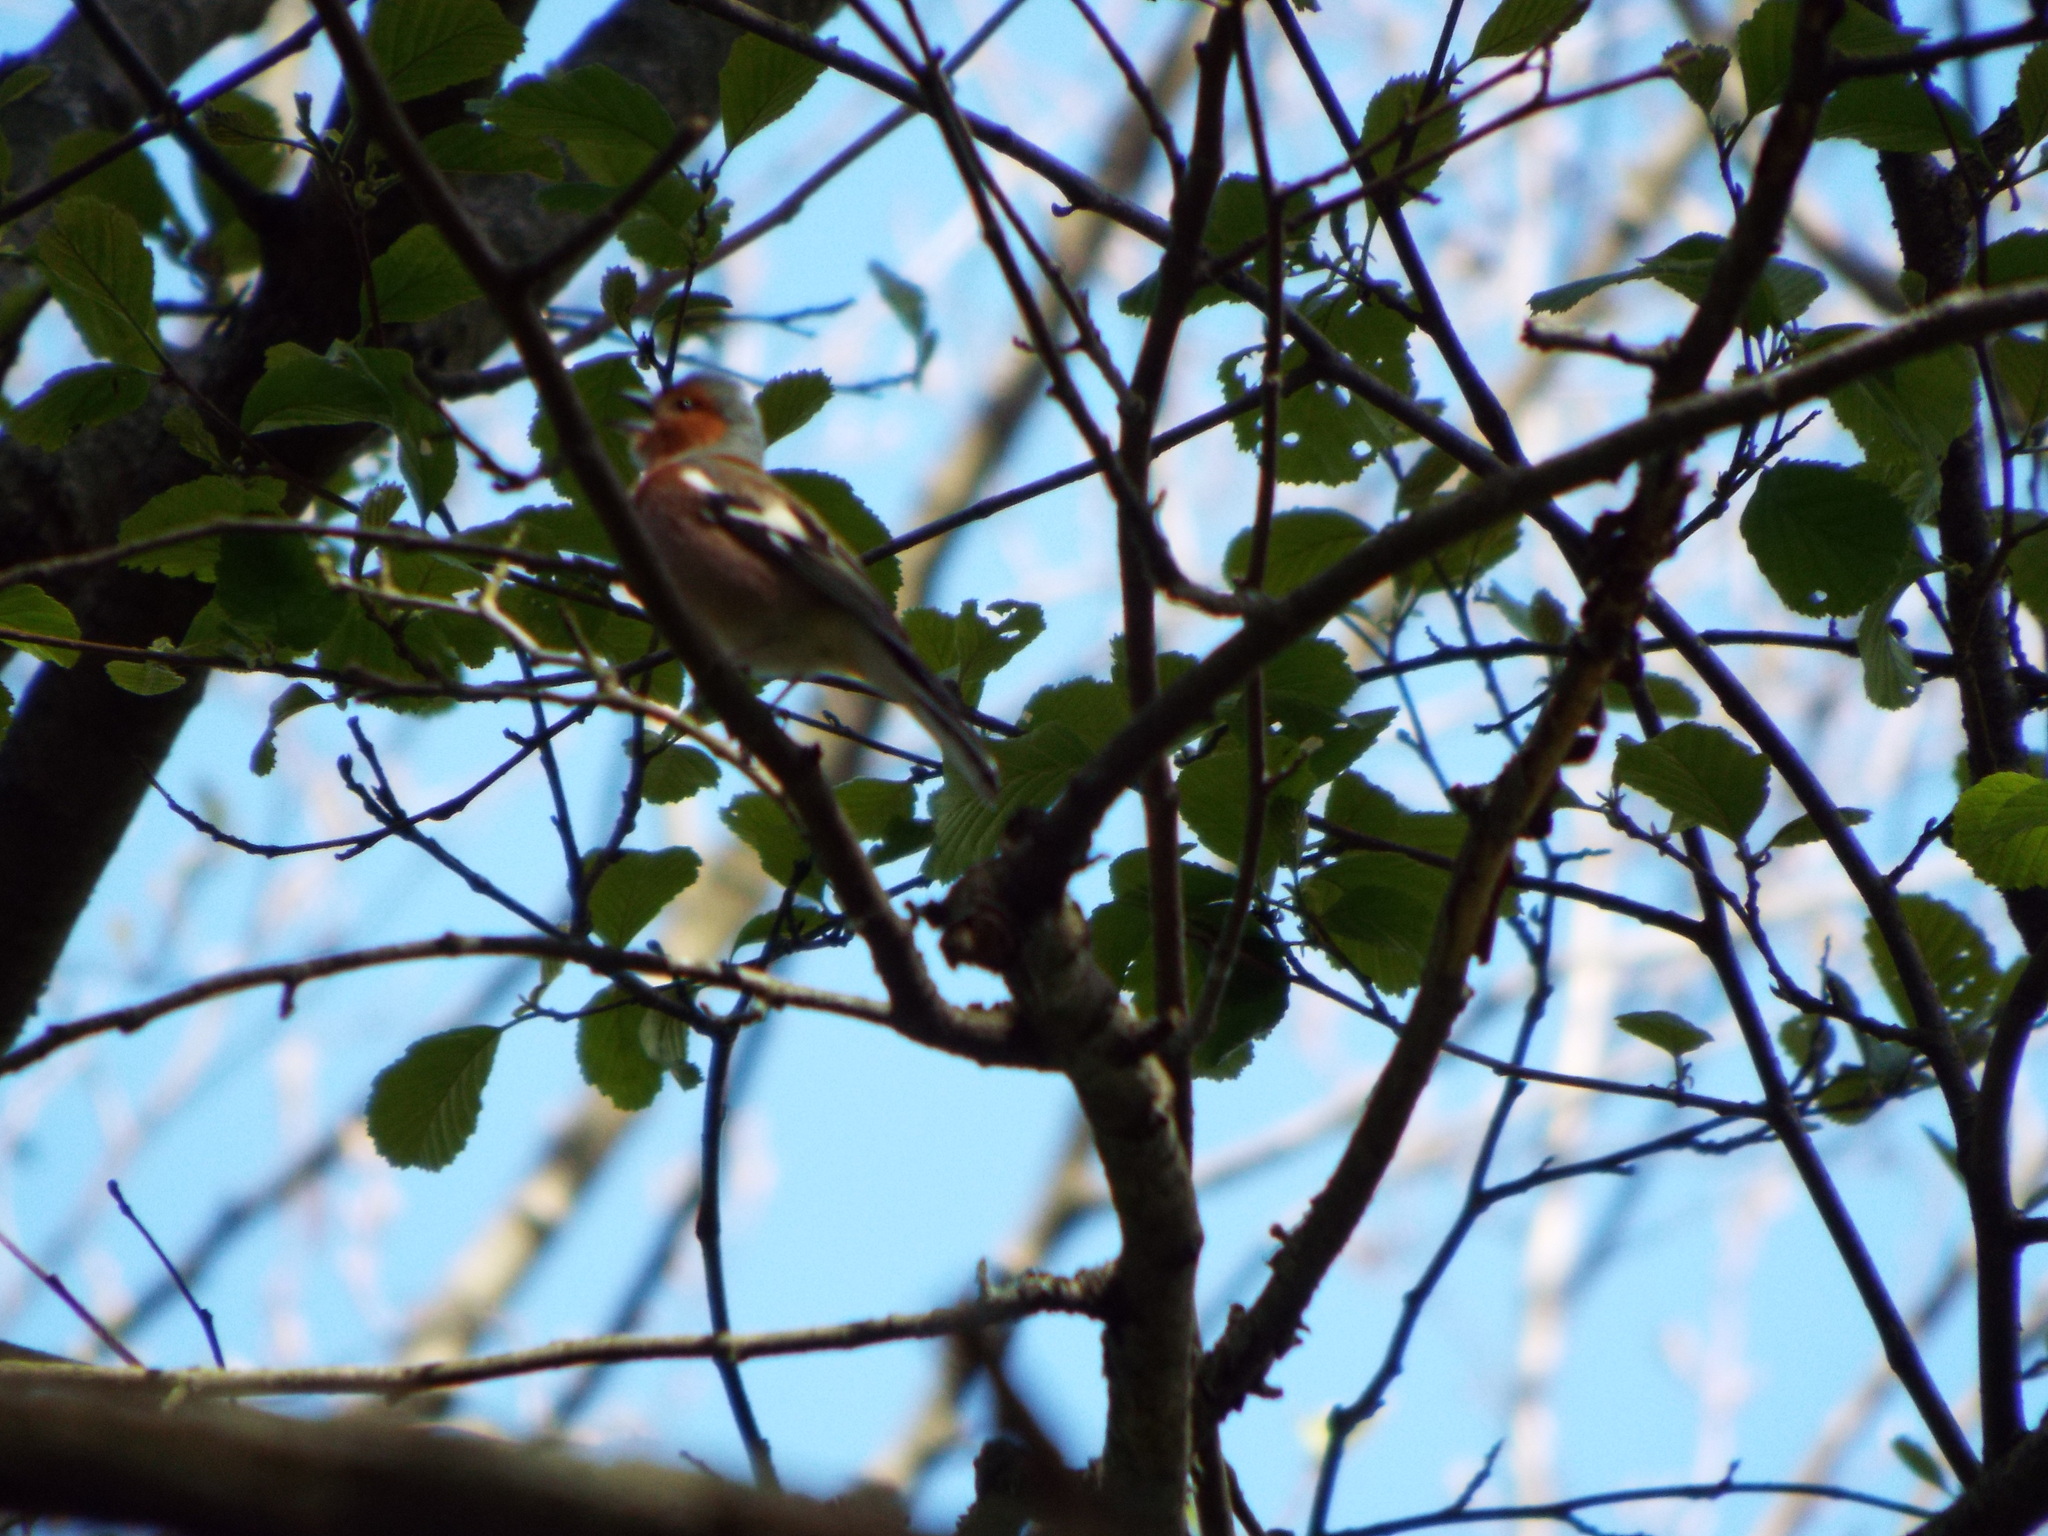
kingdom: Animalia
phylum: Chordata
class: Aves
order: Passeriformes
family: Fringillidae
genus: Fringilla
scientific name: Fringilla coelebs
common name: Common chaffinch
